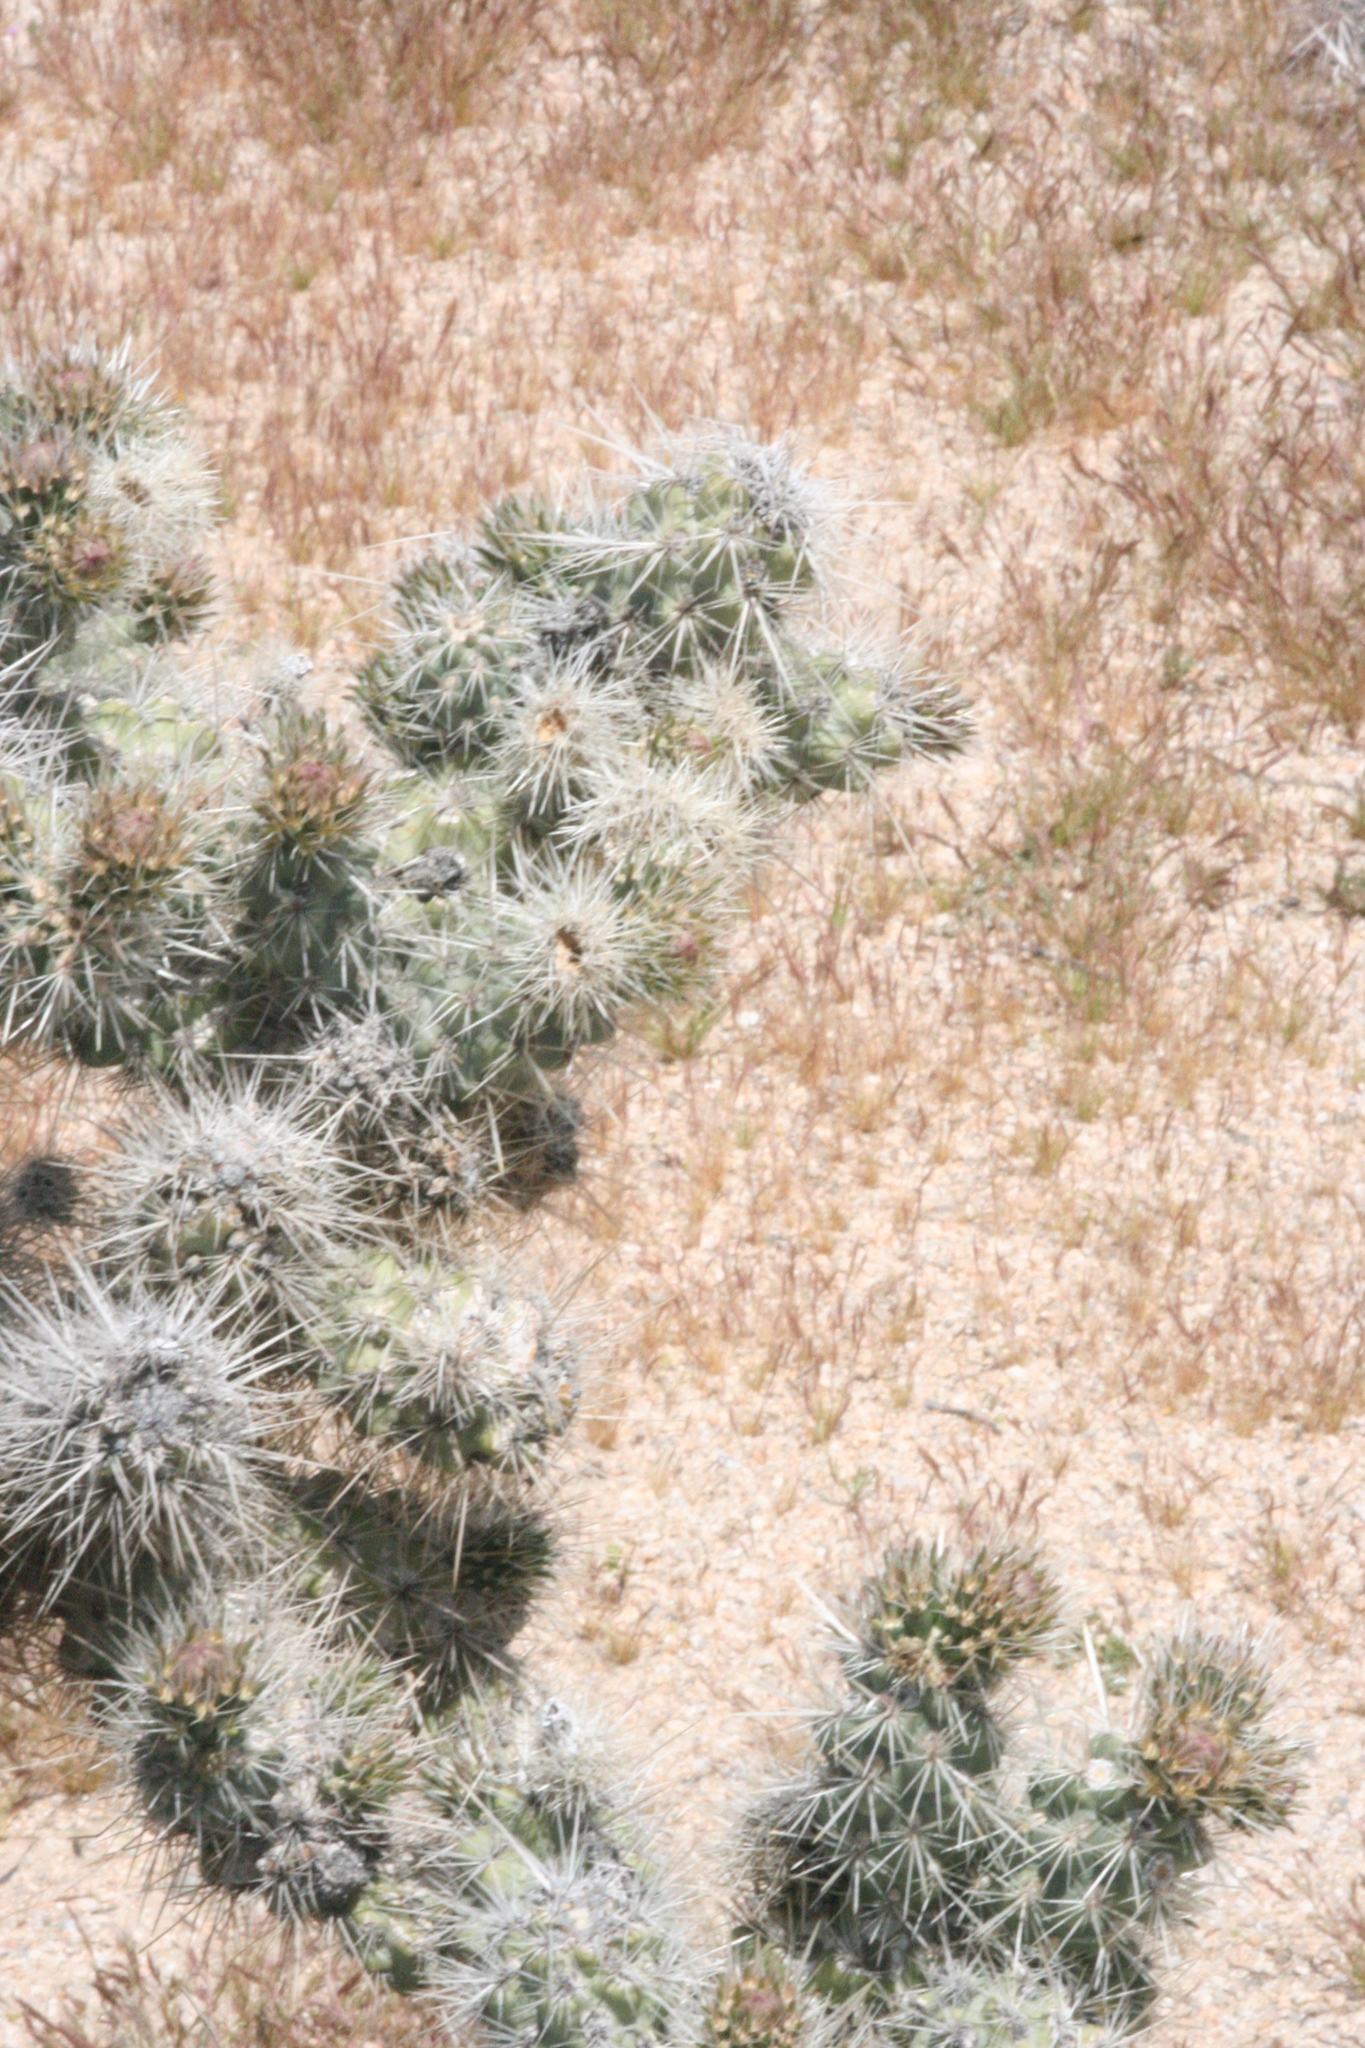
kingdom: Plantae
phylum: Tracheophyta
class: Magnoliopsida
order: Caryophyllales
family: Cactaceae
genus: Cylindropuntia
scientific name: Cylindropuntia echinocarpa
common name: Ground cholla
